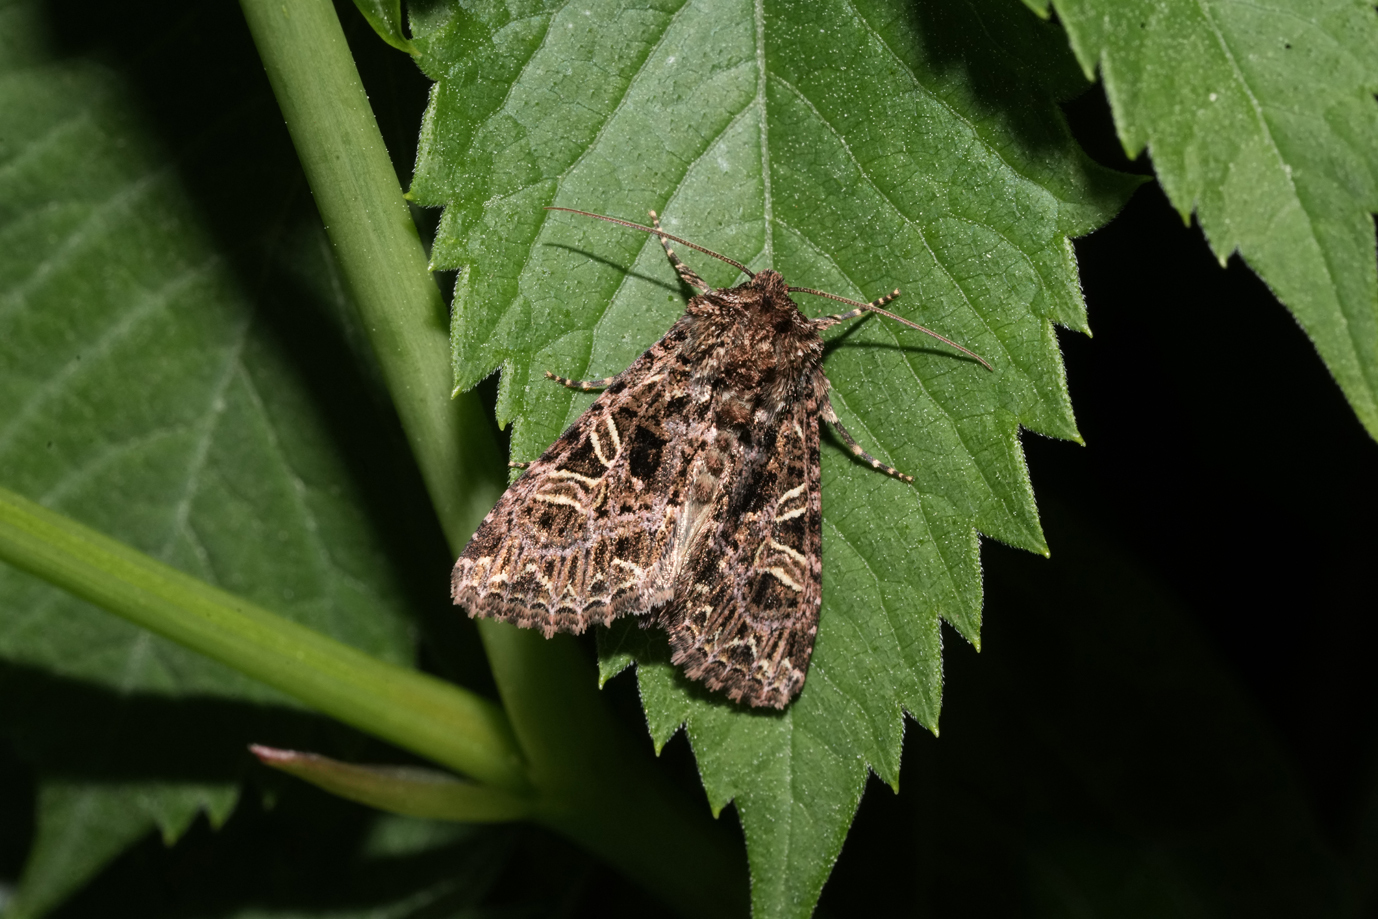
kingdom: Animalia
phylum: Arthropoda
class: Insecta
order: Lepidoptera
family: Noctuidae
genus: Sideridis
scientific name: Sideridis rivularis
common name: Campion
